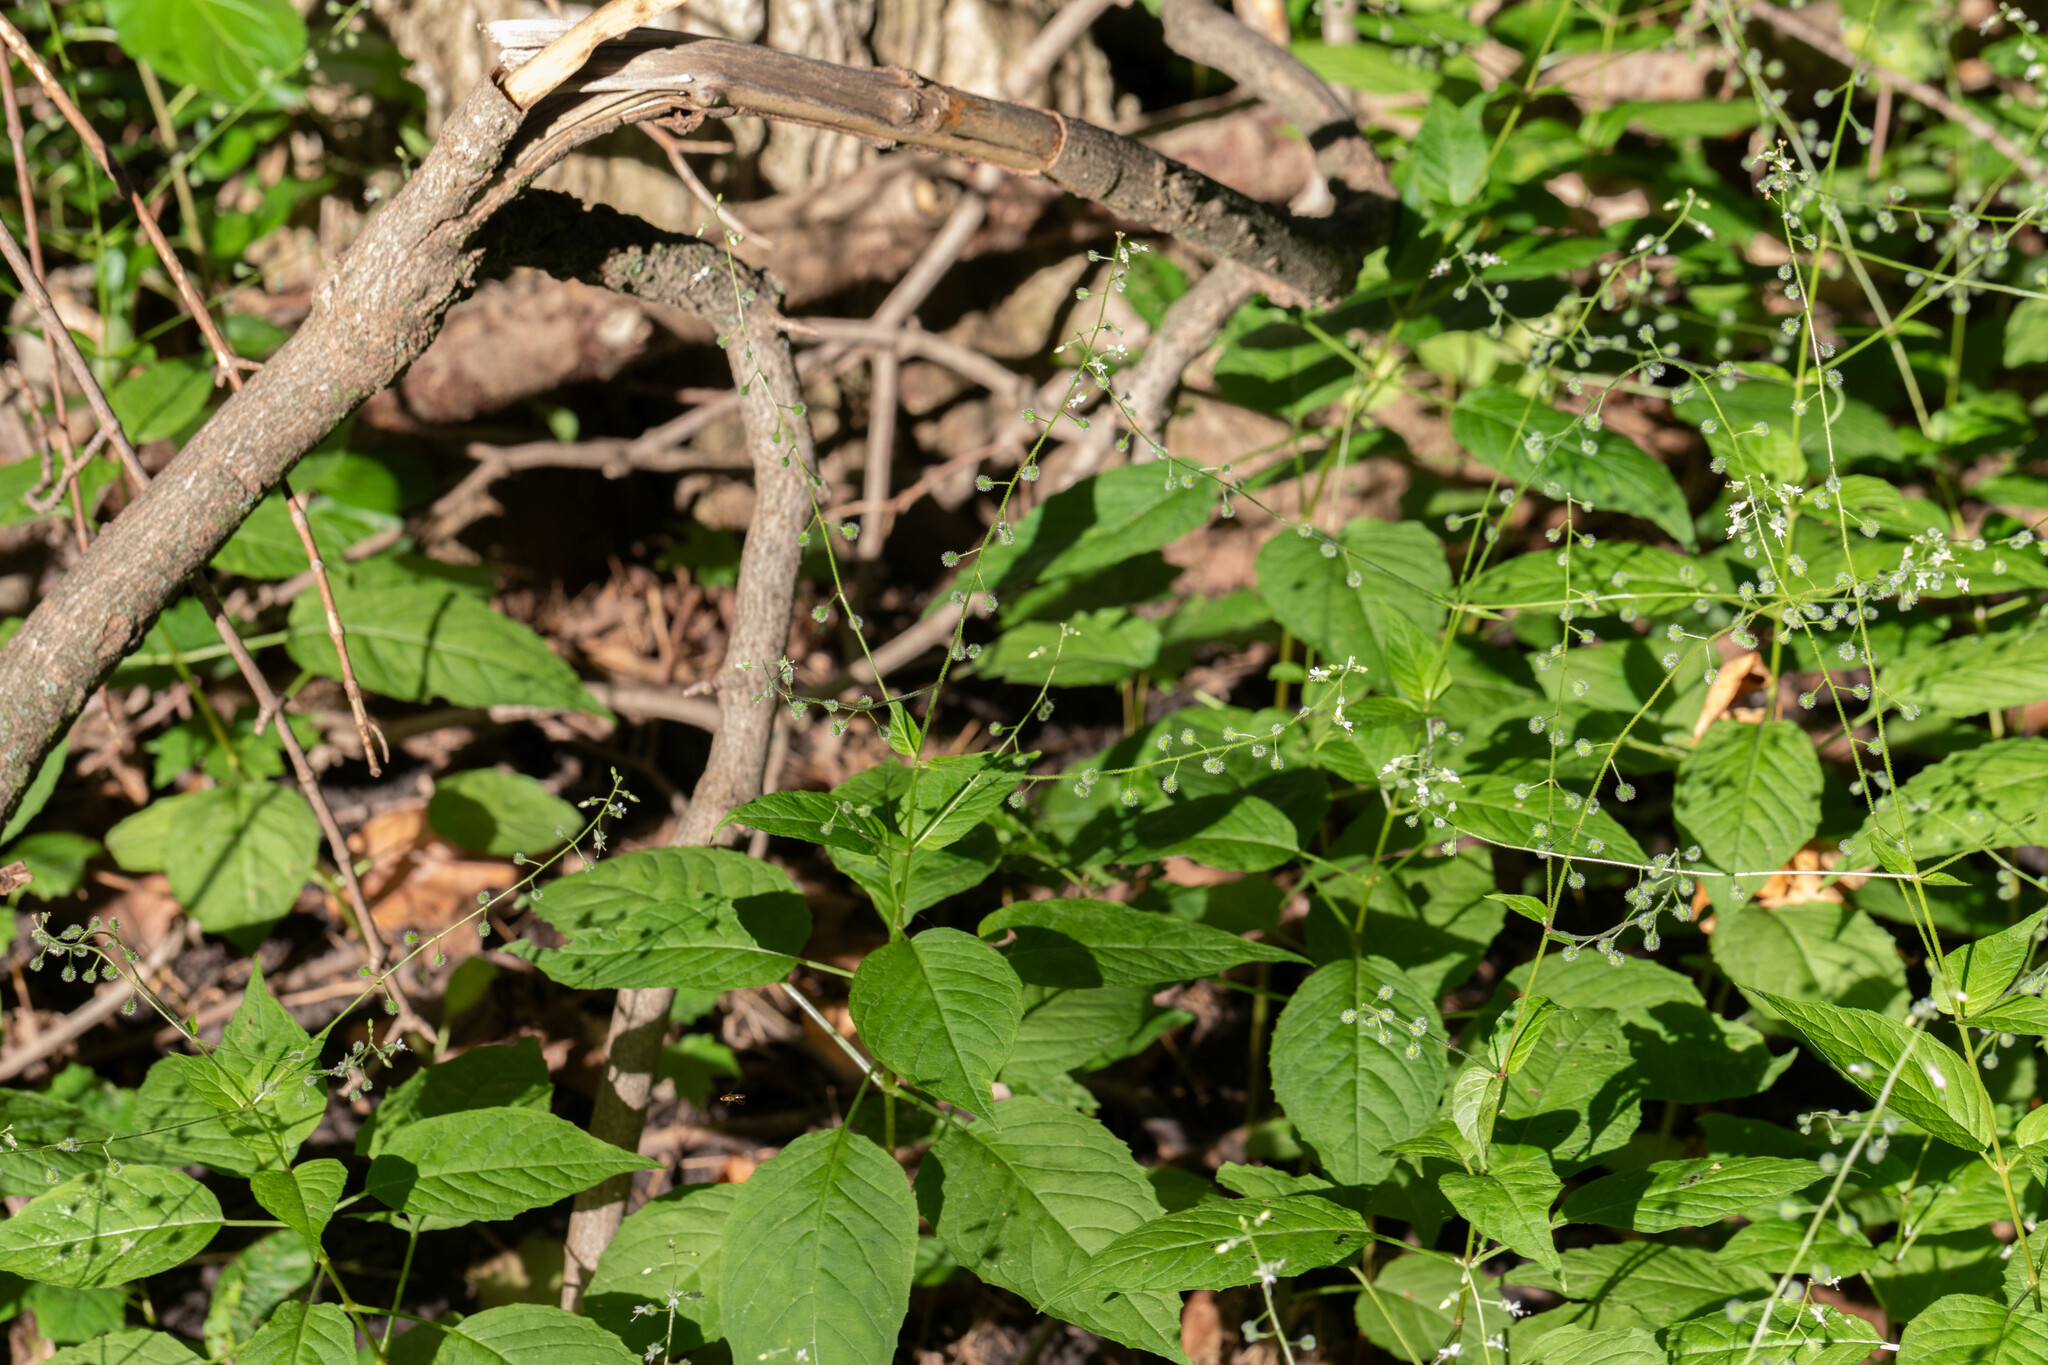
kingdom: Plantae
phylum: Tracheophyta
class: Magnoliopsida
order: Myrtales
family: Onagraceae
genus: Circaea
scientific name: Circaea canadensis
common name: Broad-leaved enchanter's nightshade
